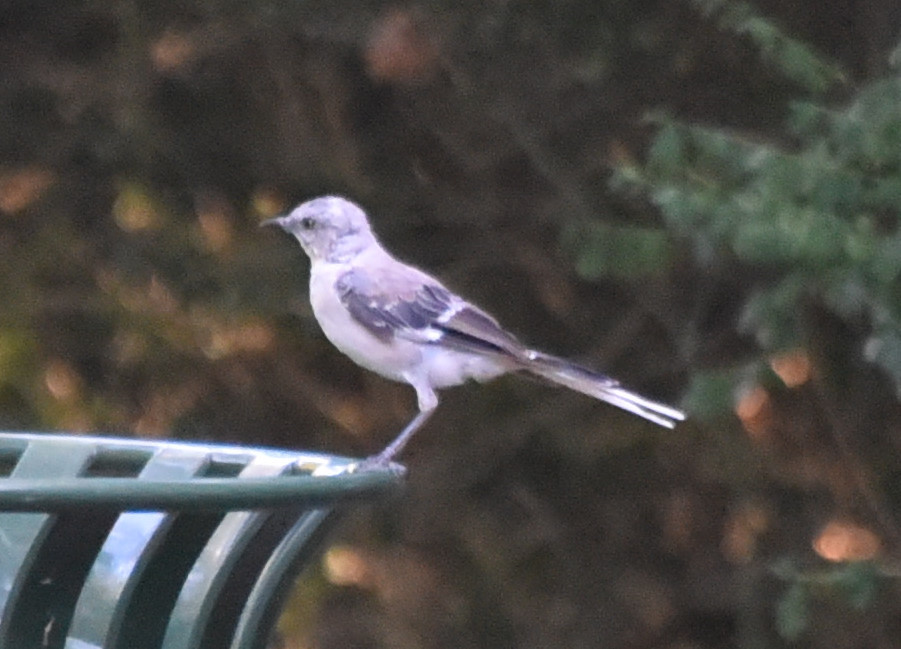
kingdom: Animalia
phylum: Chordata
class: Aves
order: Passeriformes
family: Mimidae
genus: Mimus
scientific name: Mimus polyglottos
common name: Northern mockingbird
